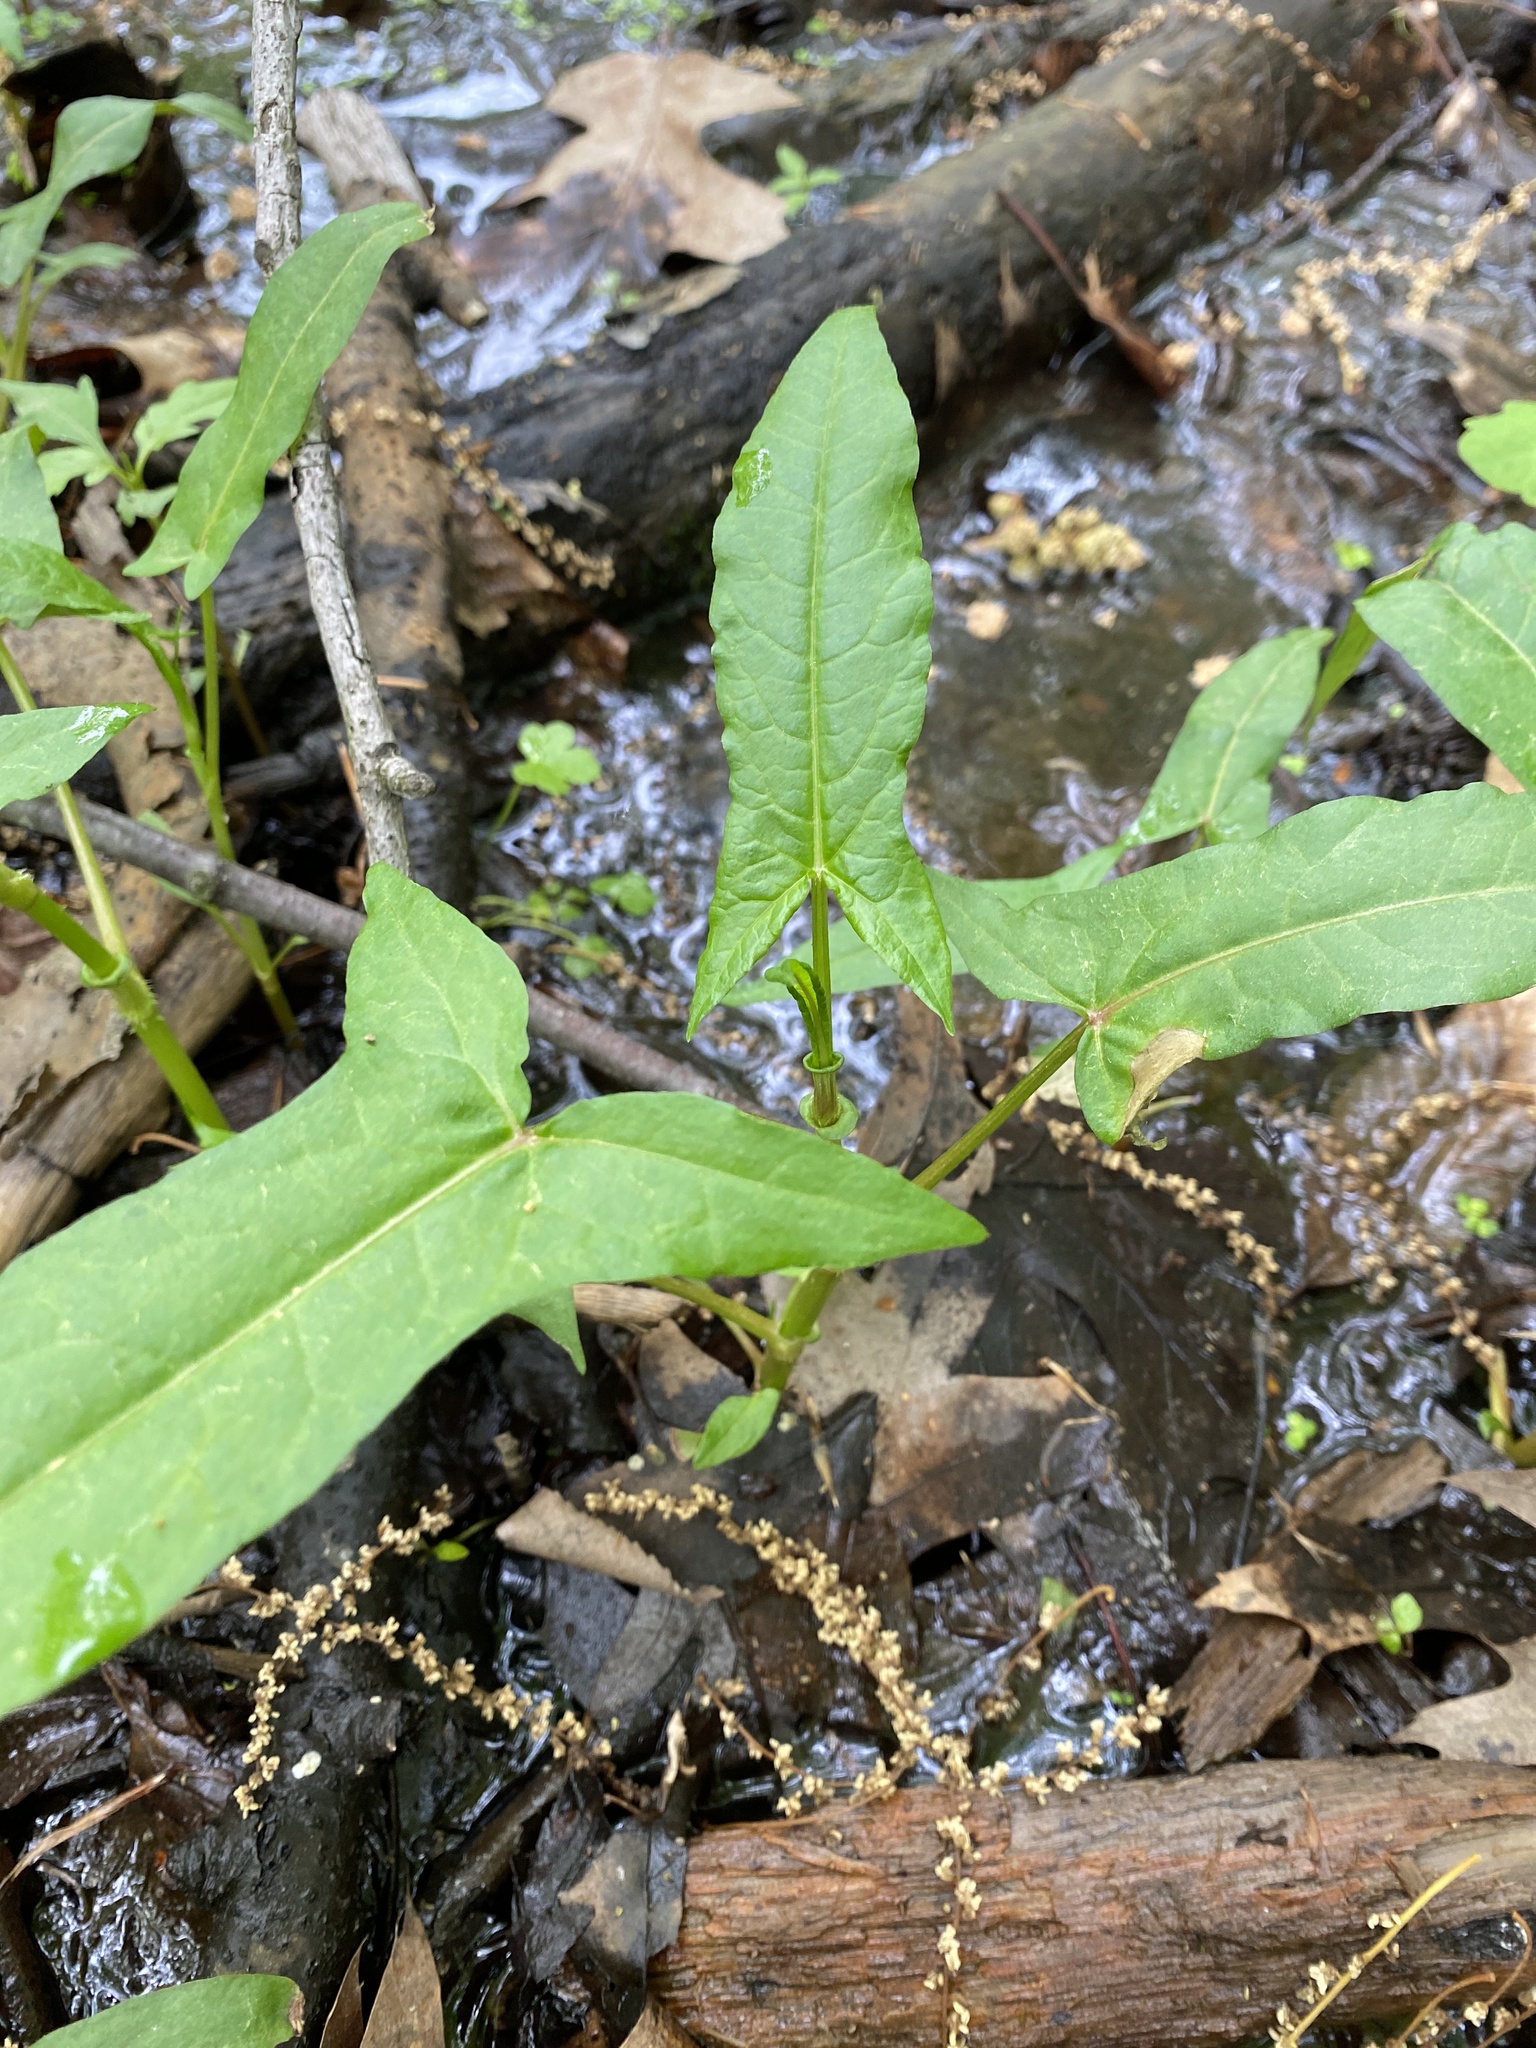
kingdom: Plantae
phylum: Tracheophyta
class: Magnoliopsida
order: Caryophyllales
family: Polygonaceae
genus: Persicaria
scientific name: Persicaria arifolia
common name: Halberd-leaved tear-thumb
